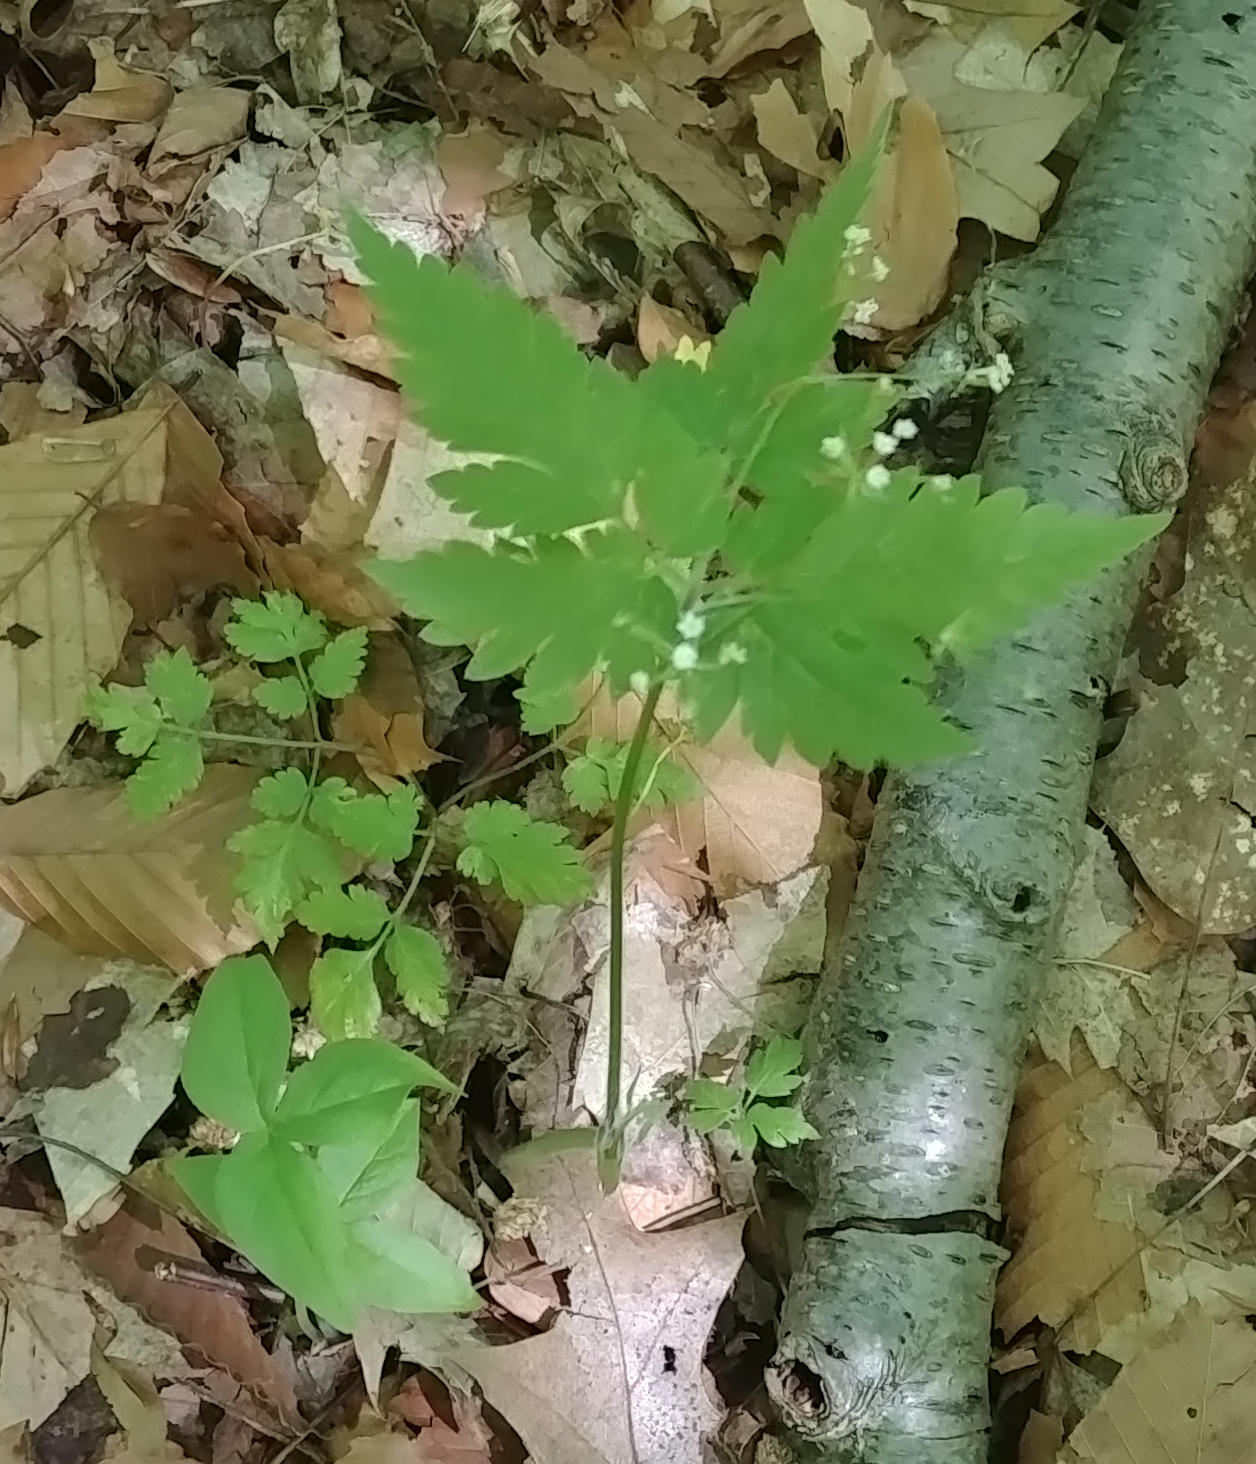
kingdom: Plantae
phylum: Tracheophyta
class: Magnoliopsida
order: Apiales
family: Apiaceae
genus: Osmorhiza
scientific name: Osmorhiza claytonii
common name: Hairy sweet cicely
